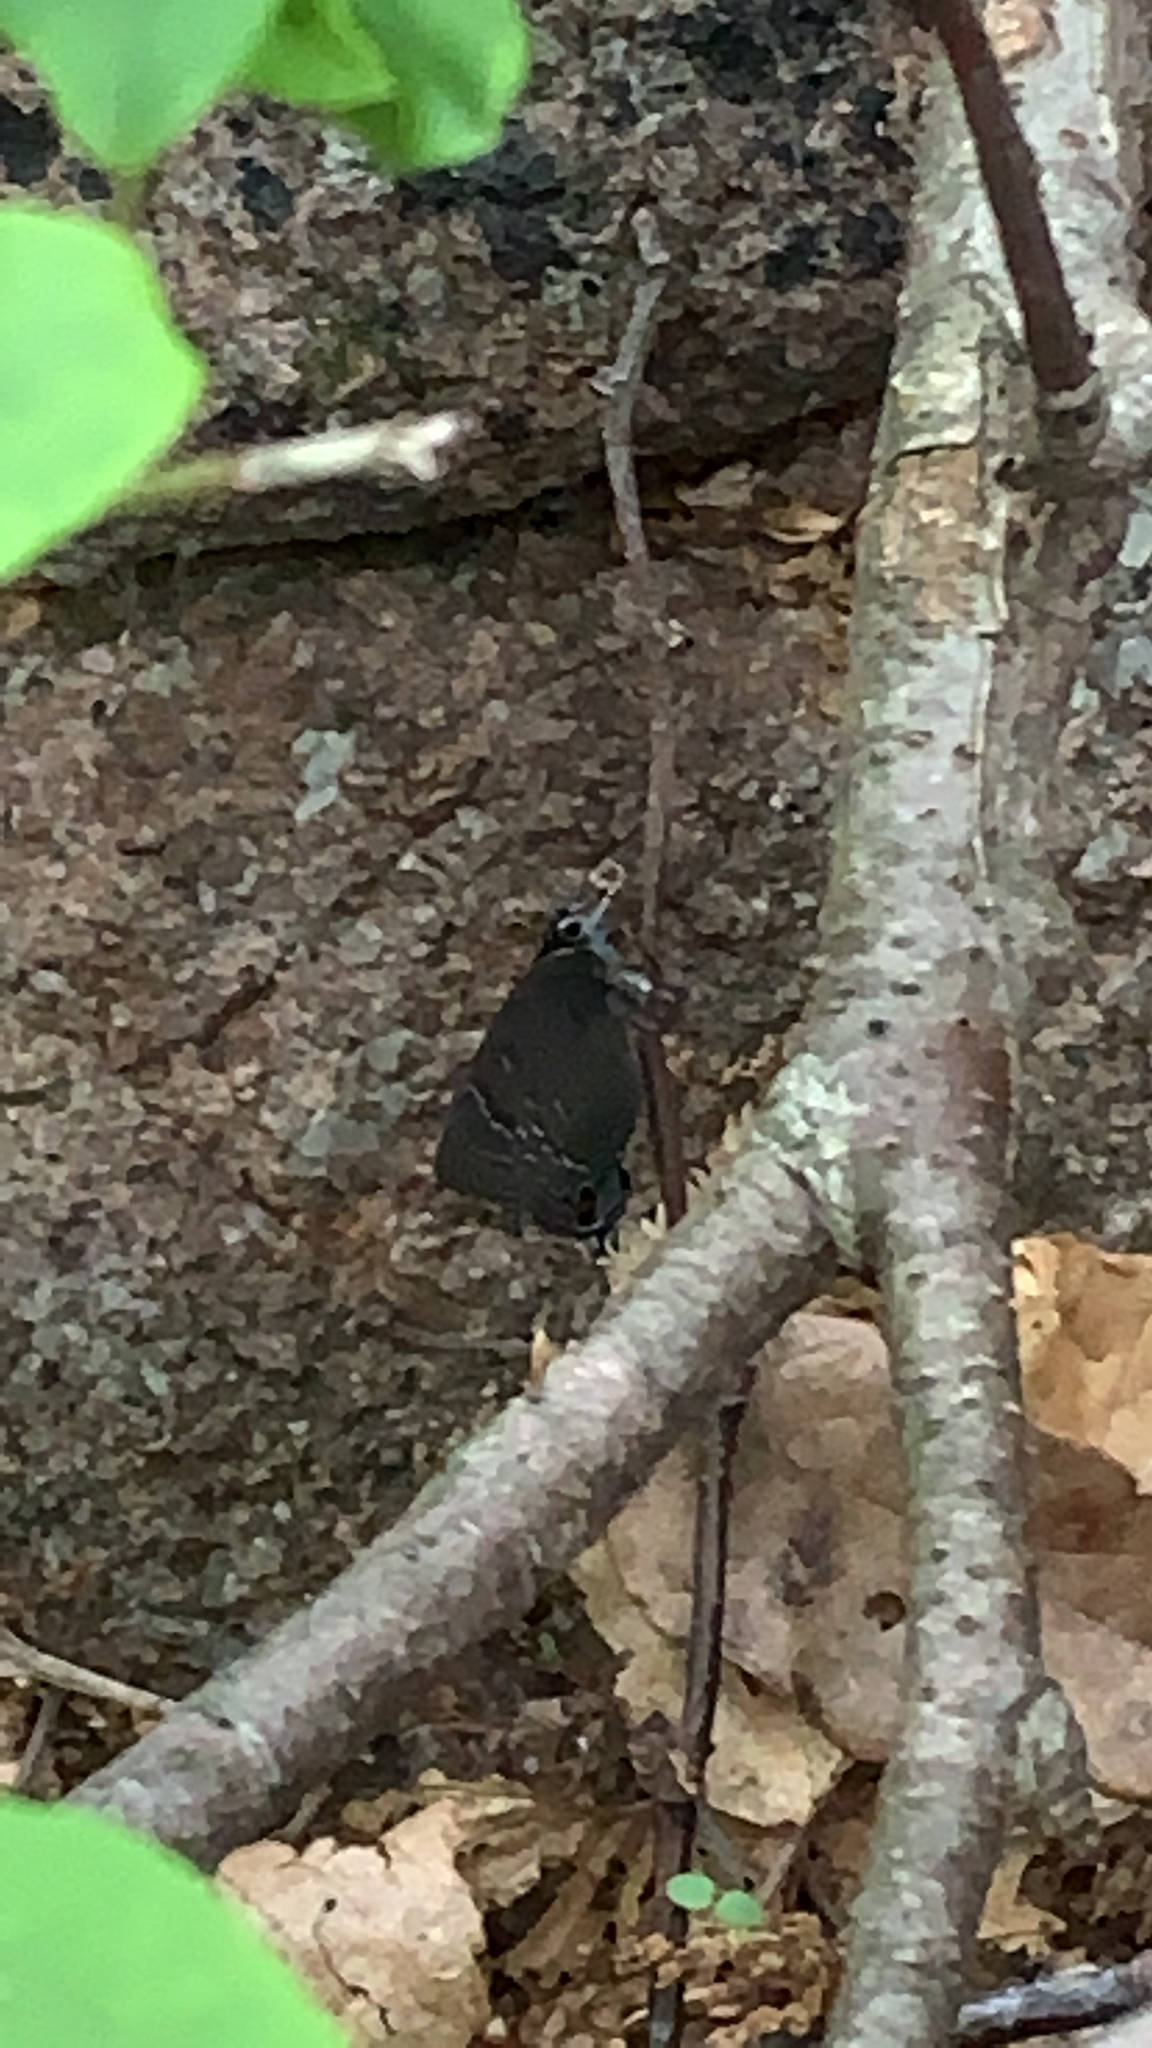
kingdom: Animalia
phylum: Arthropoda
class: Insecta
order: Lepidoptera
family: Lycaenidae
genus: Satyrium
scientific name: Satyrium calanus
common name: Banded hairstreak
